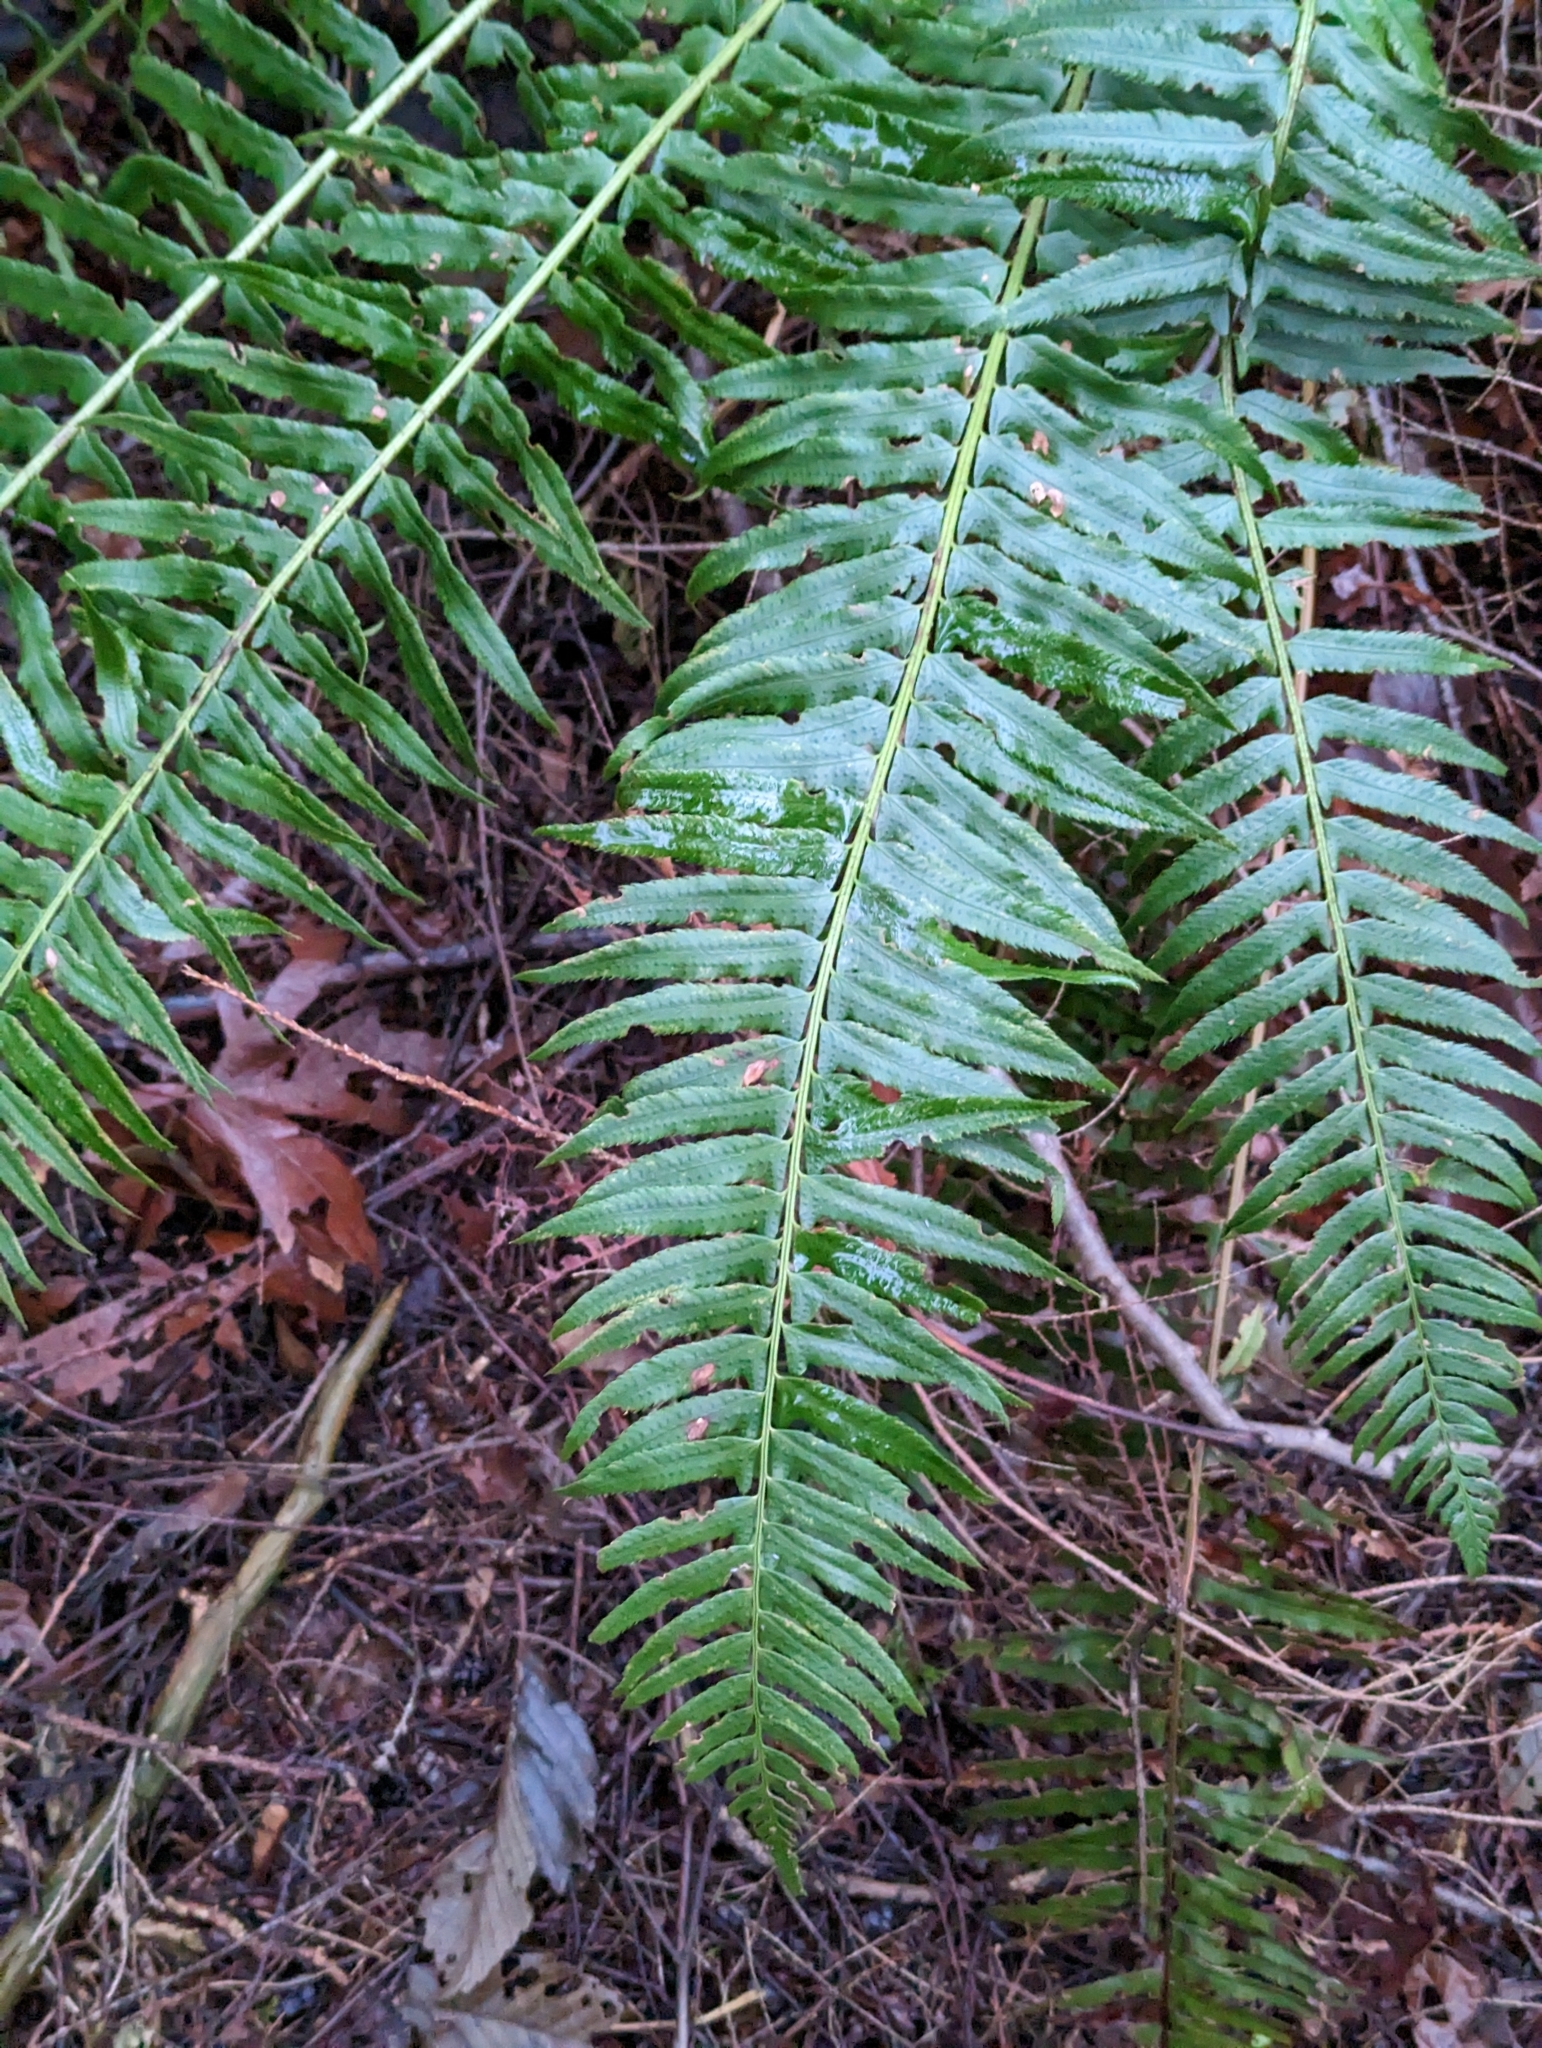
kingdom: Plantae
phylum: Tracheophyta
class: Polypodiopsida
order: Polypodiales
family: Dryopteridaceae
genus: Polystichum
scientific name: Polystichum munitum
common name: Western sword-fern
